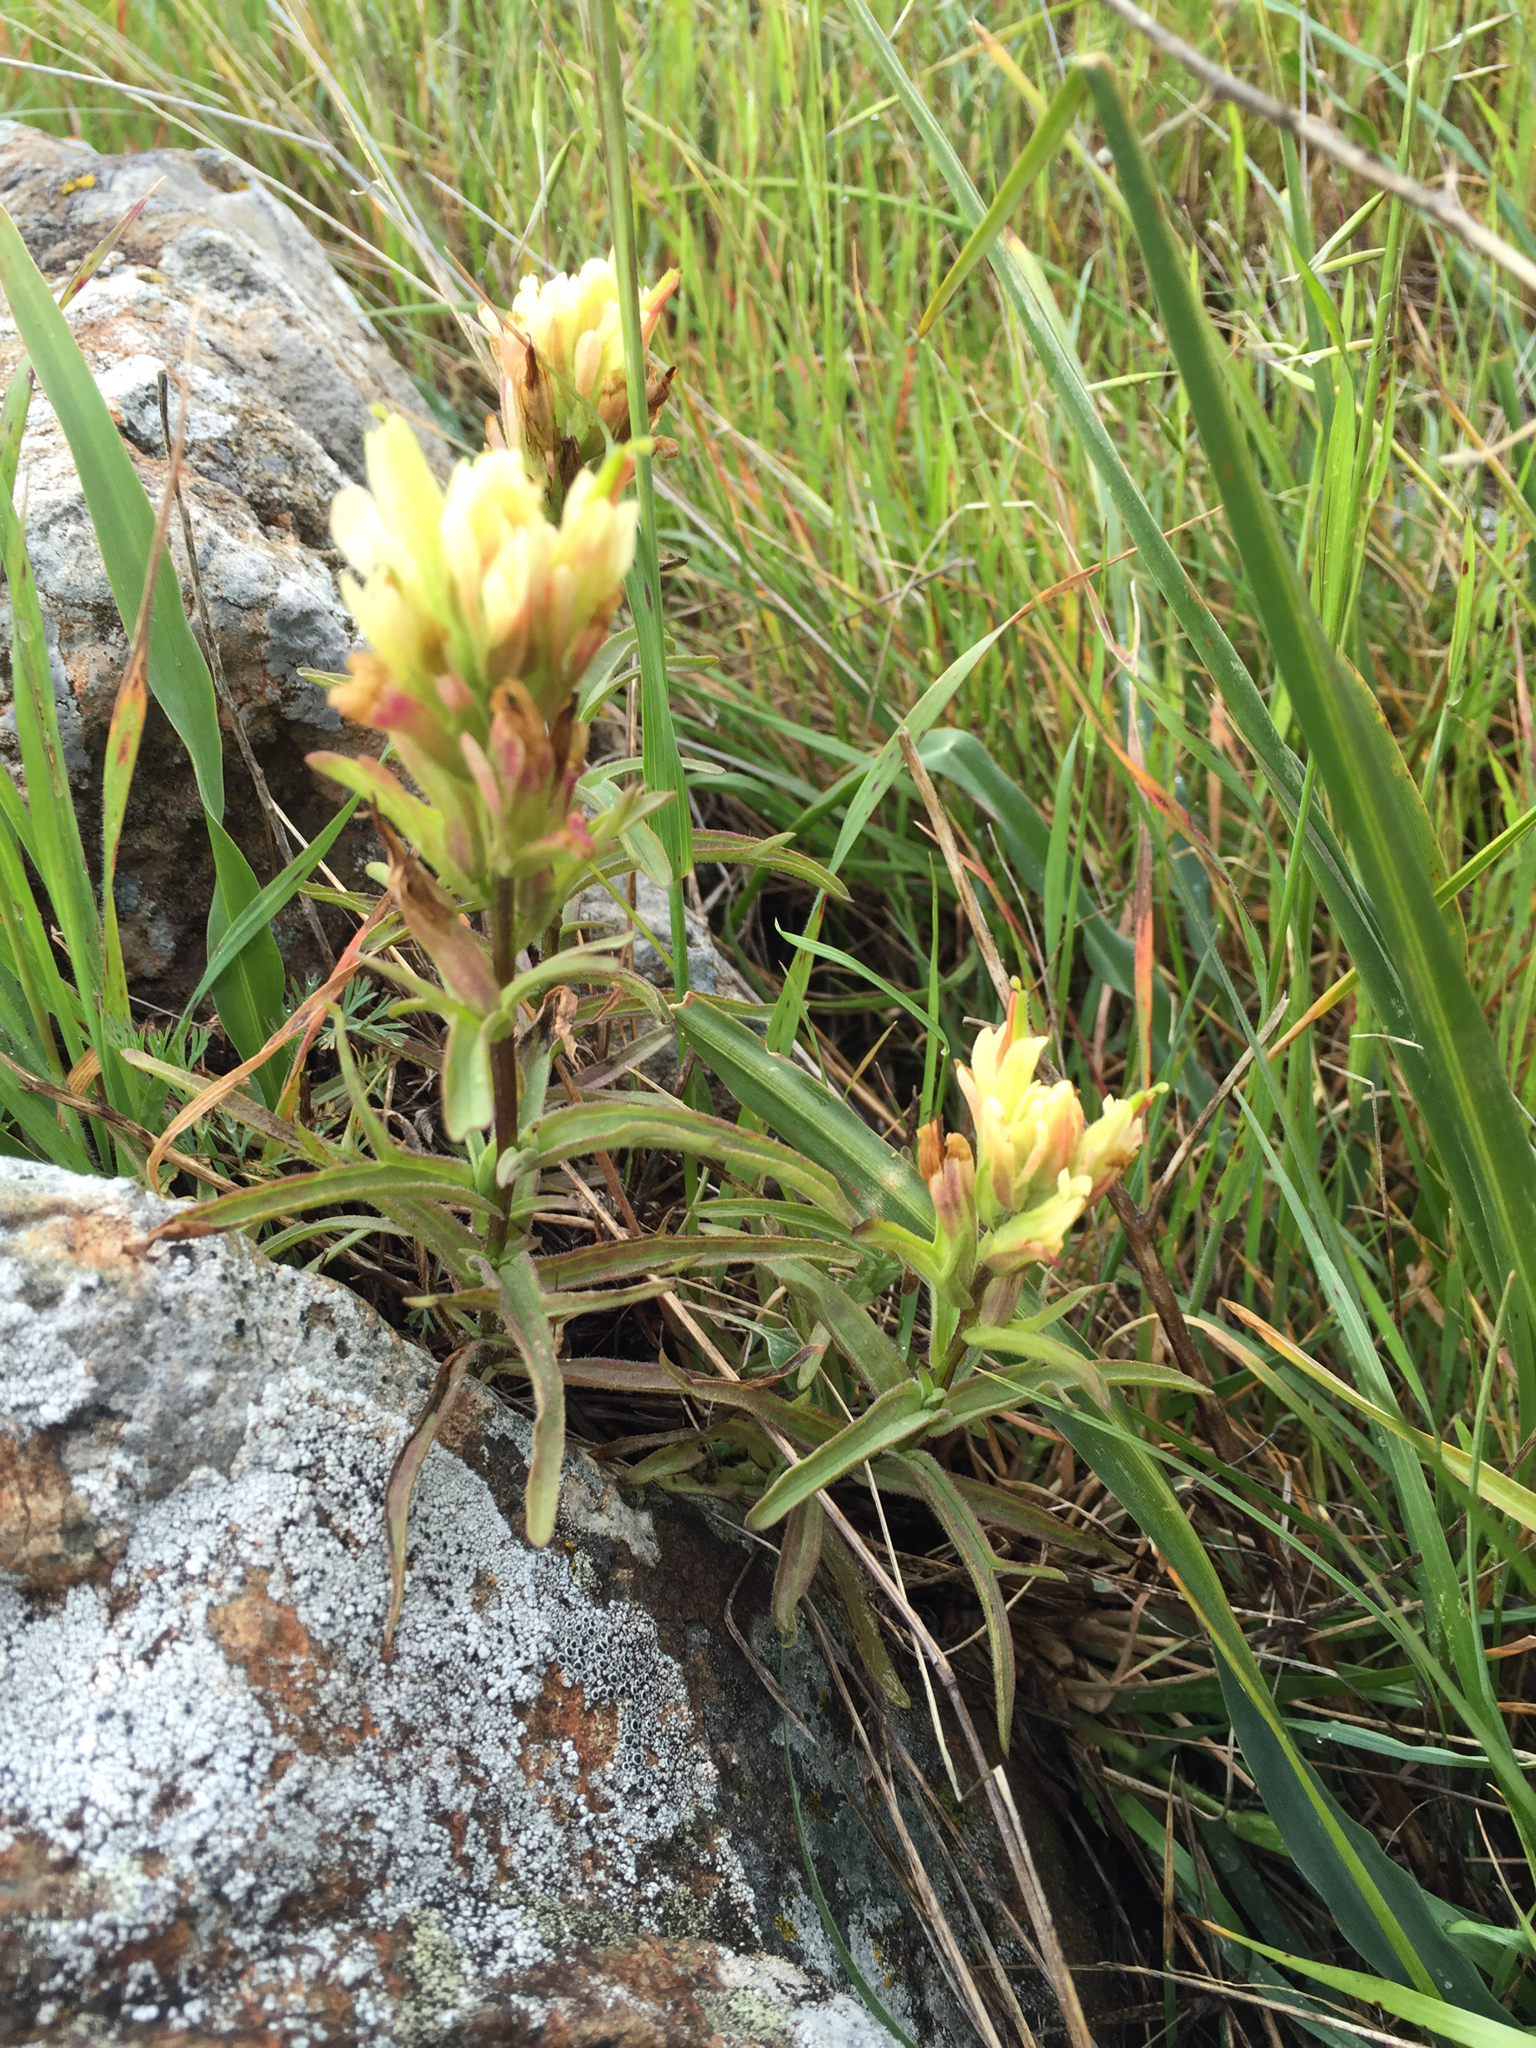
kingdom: Plantae
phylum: Tracheophyta
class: Magnoliopsida
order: Lamiales
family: Orobanchaceae
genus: Castilleja
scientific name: Castilleja affinis
